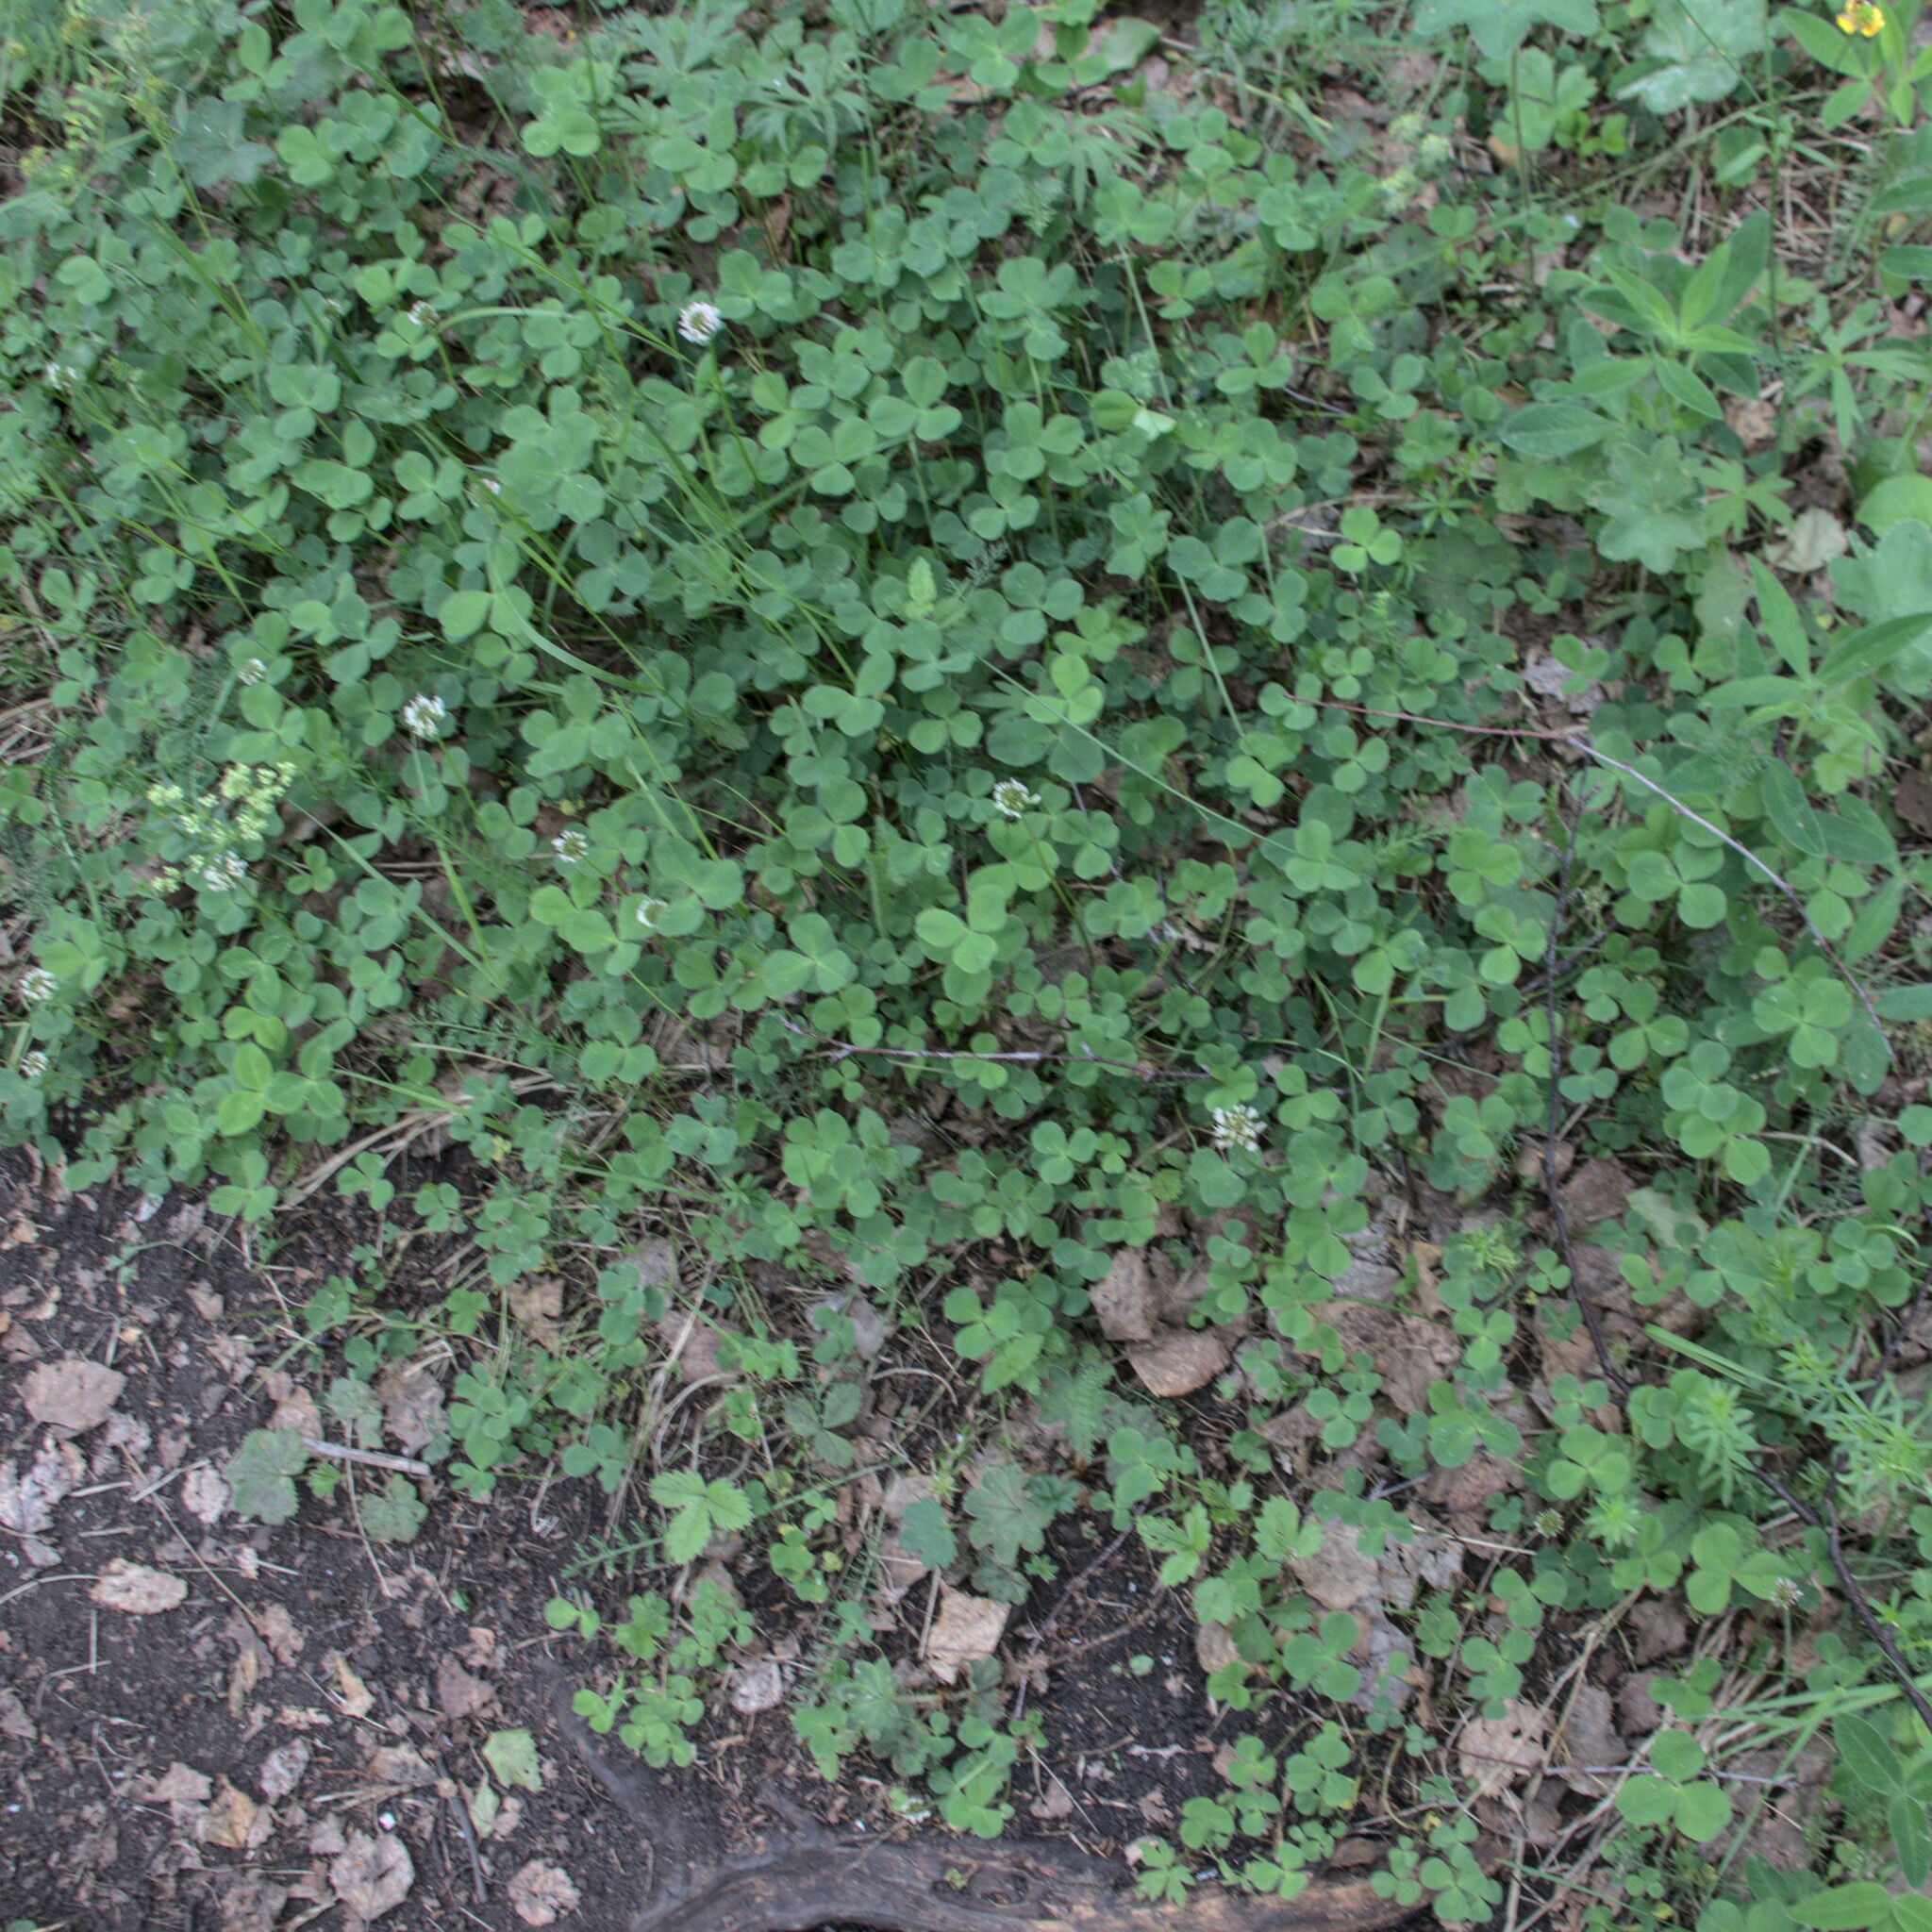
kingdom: Plantae
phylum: Tracheophyta
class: Magnoliopsida
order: Fabales
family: Fabaceae
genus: Trifolium
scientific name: Trifolium repens
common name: White clover
